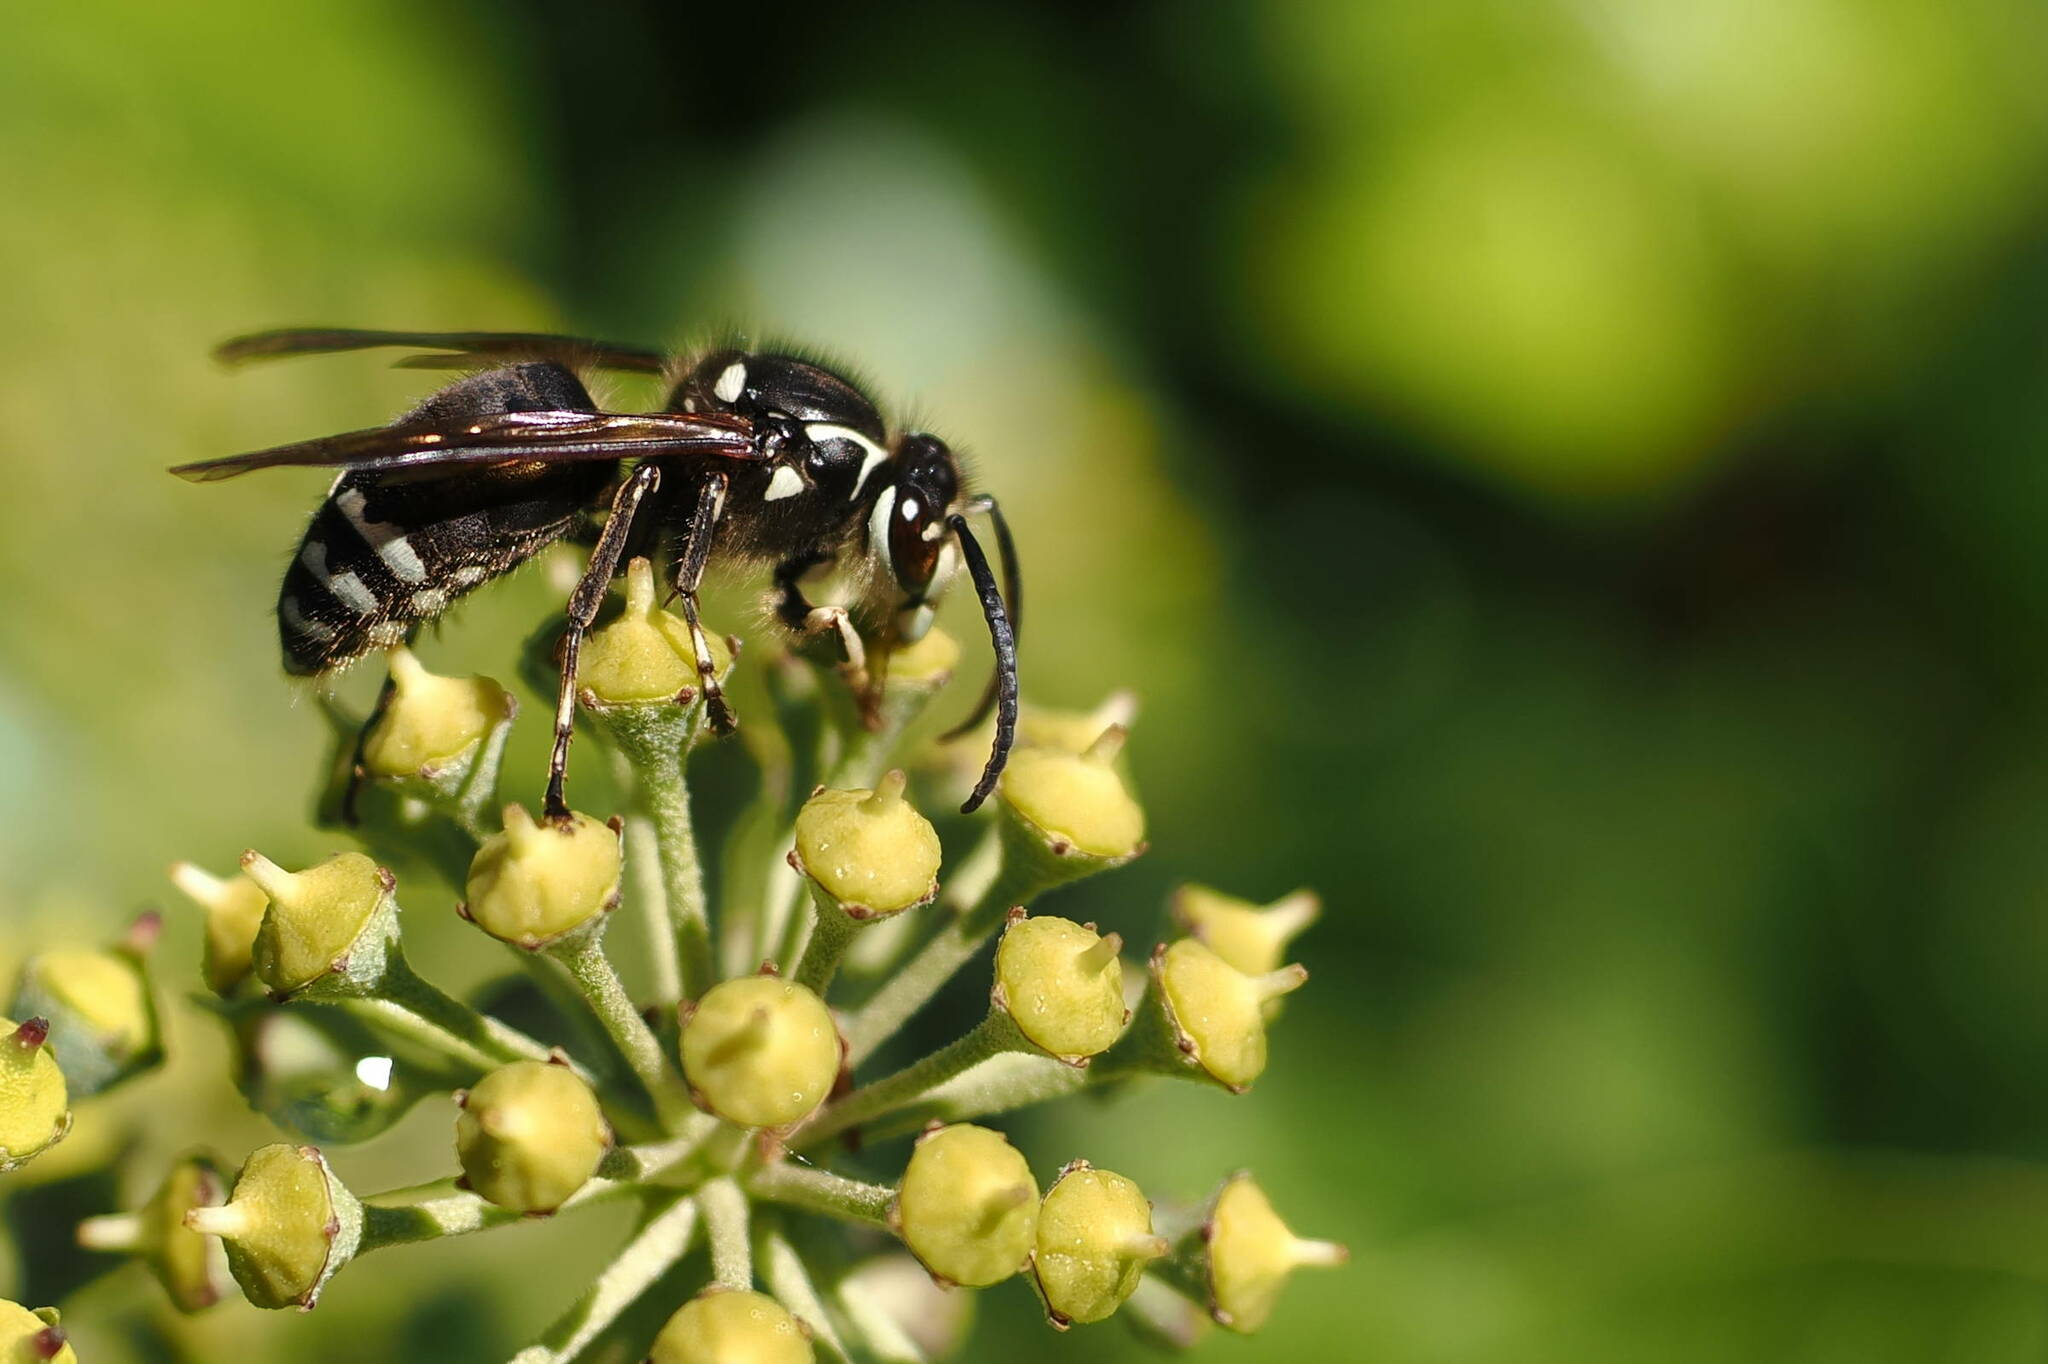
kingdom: Animalia
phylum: Arthropoda
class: Insecta
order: Hymenoptera
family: Vespidae
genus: Dolichovespula
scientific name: Dolichovespula maculata
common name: Bald-faced hornet
